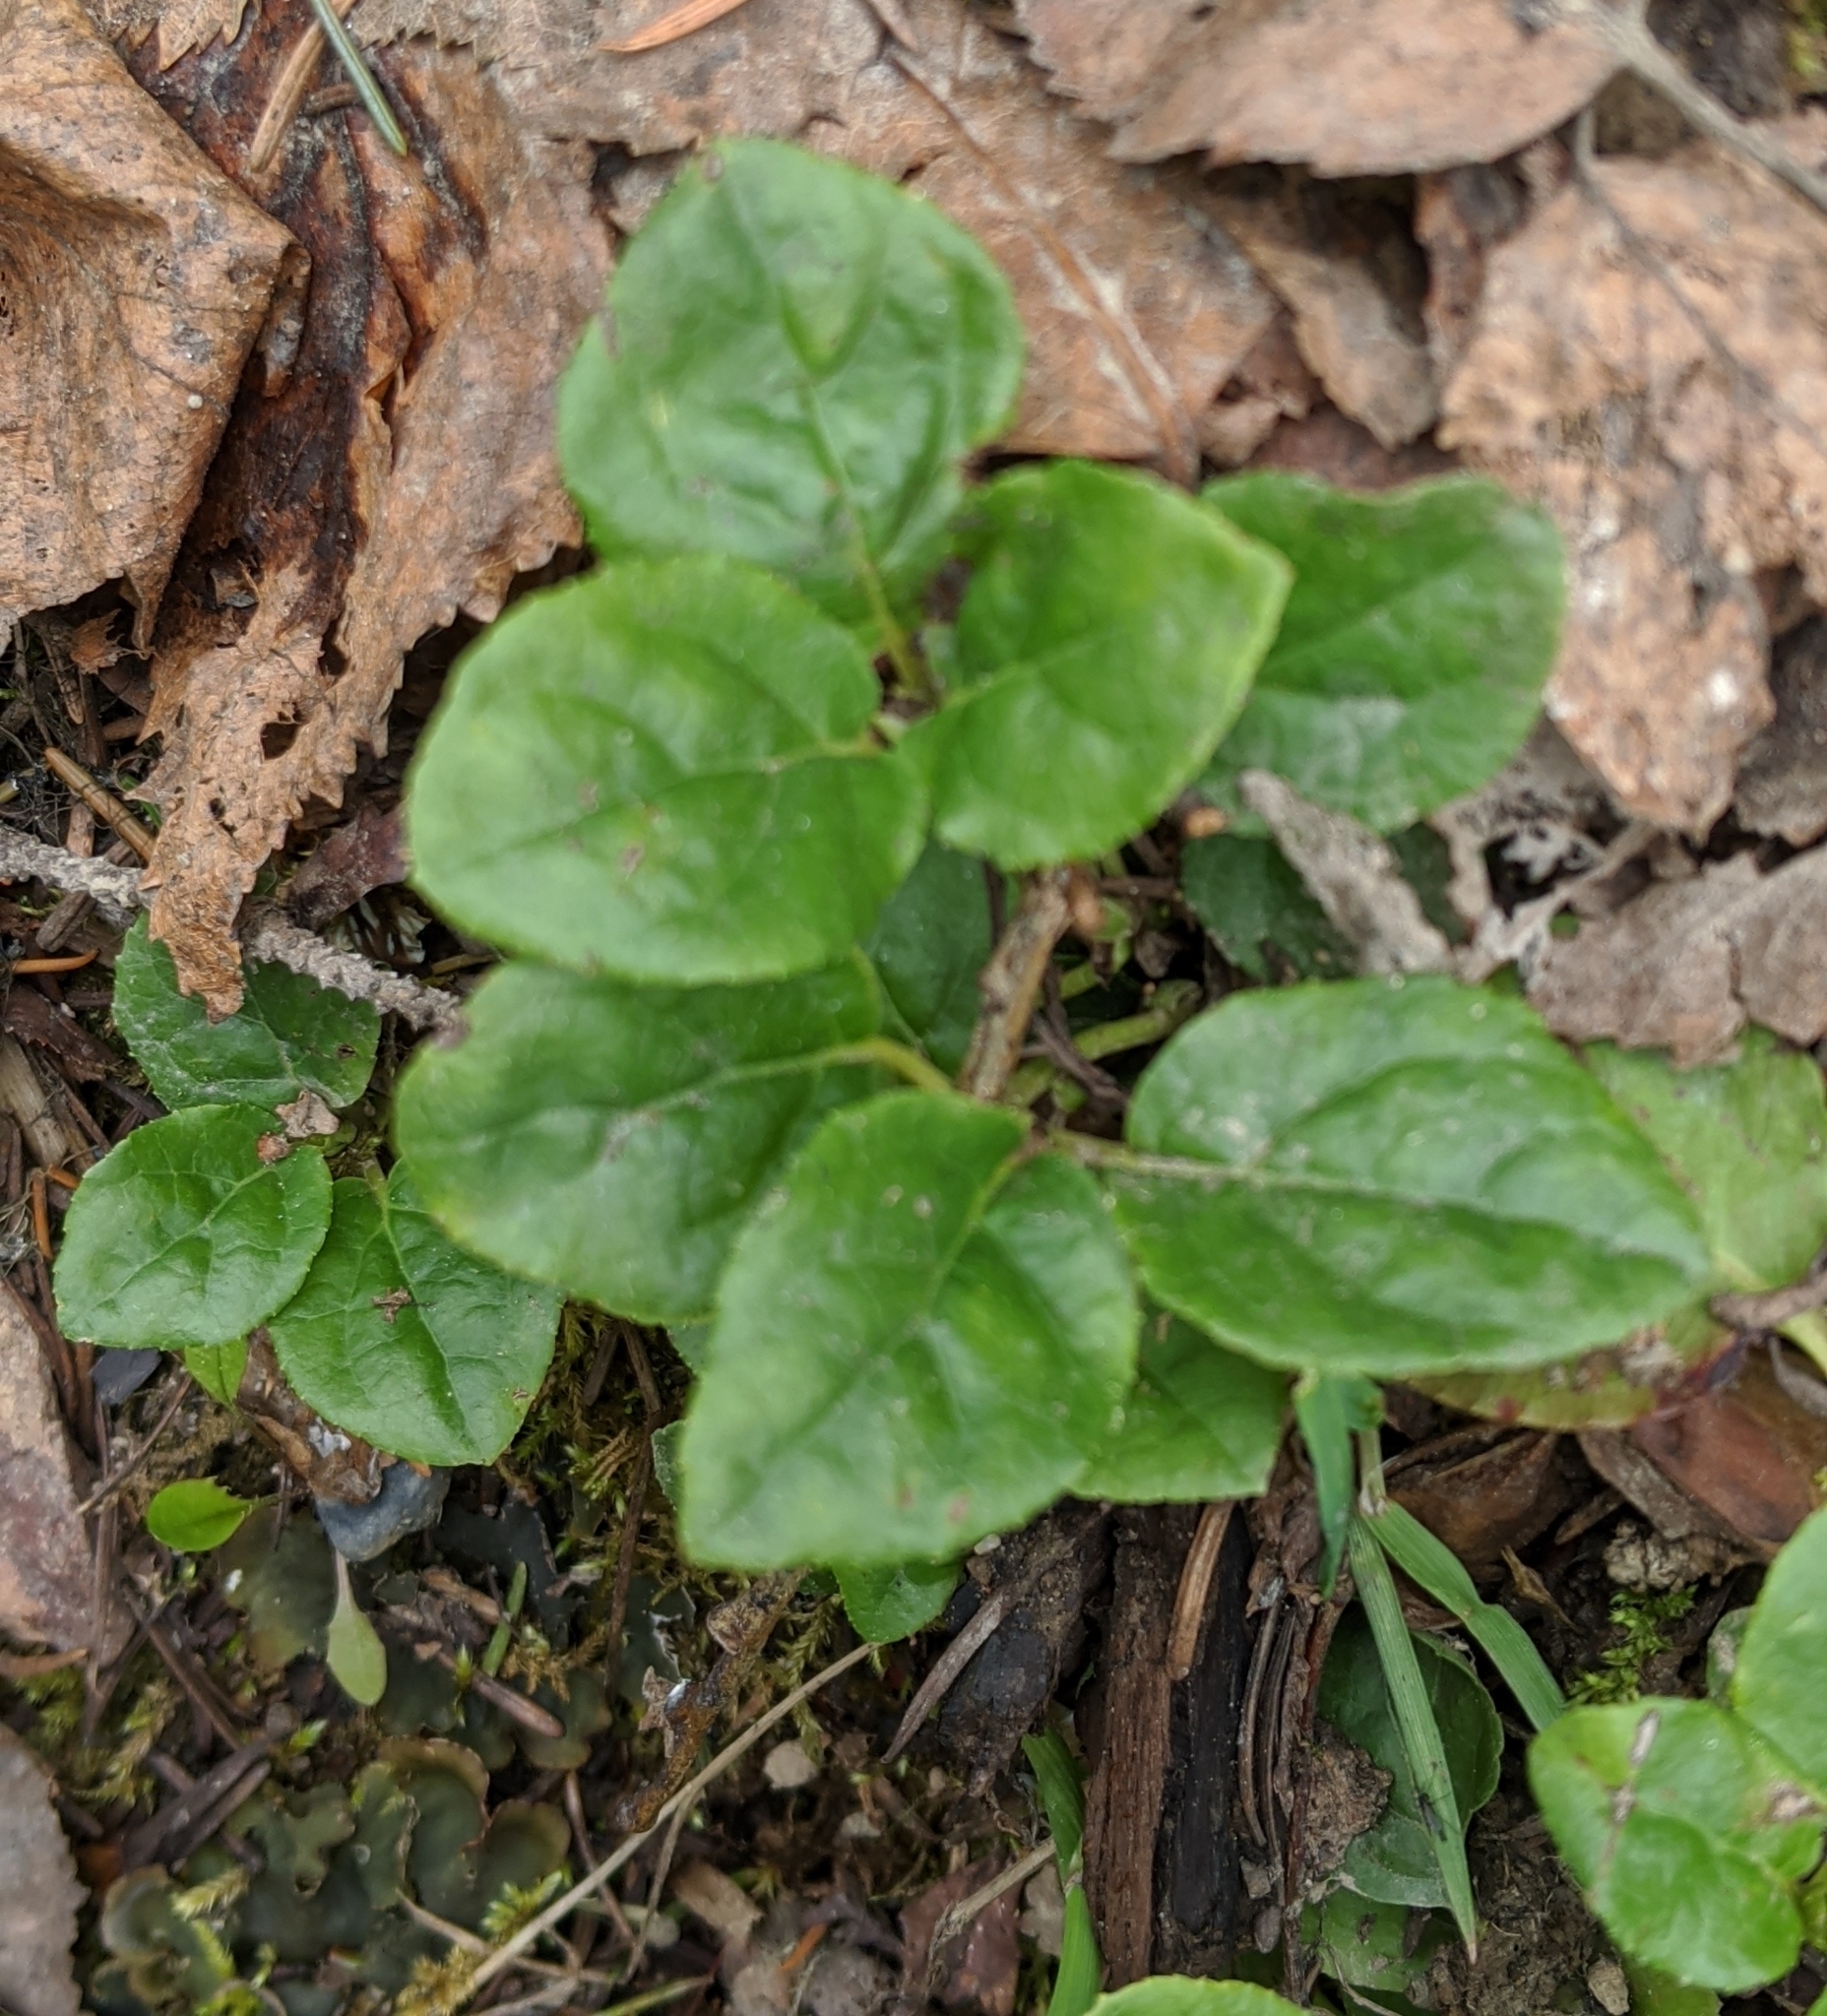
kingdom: Plantae
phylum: Tracheophyta
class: Magnoliopsida
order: Ericales
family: Ericaceae
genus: Orthilia
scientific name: Orthilia secunda
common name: One-sided orthilia
